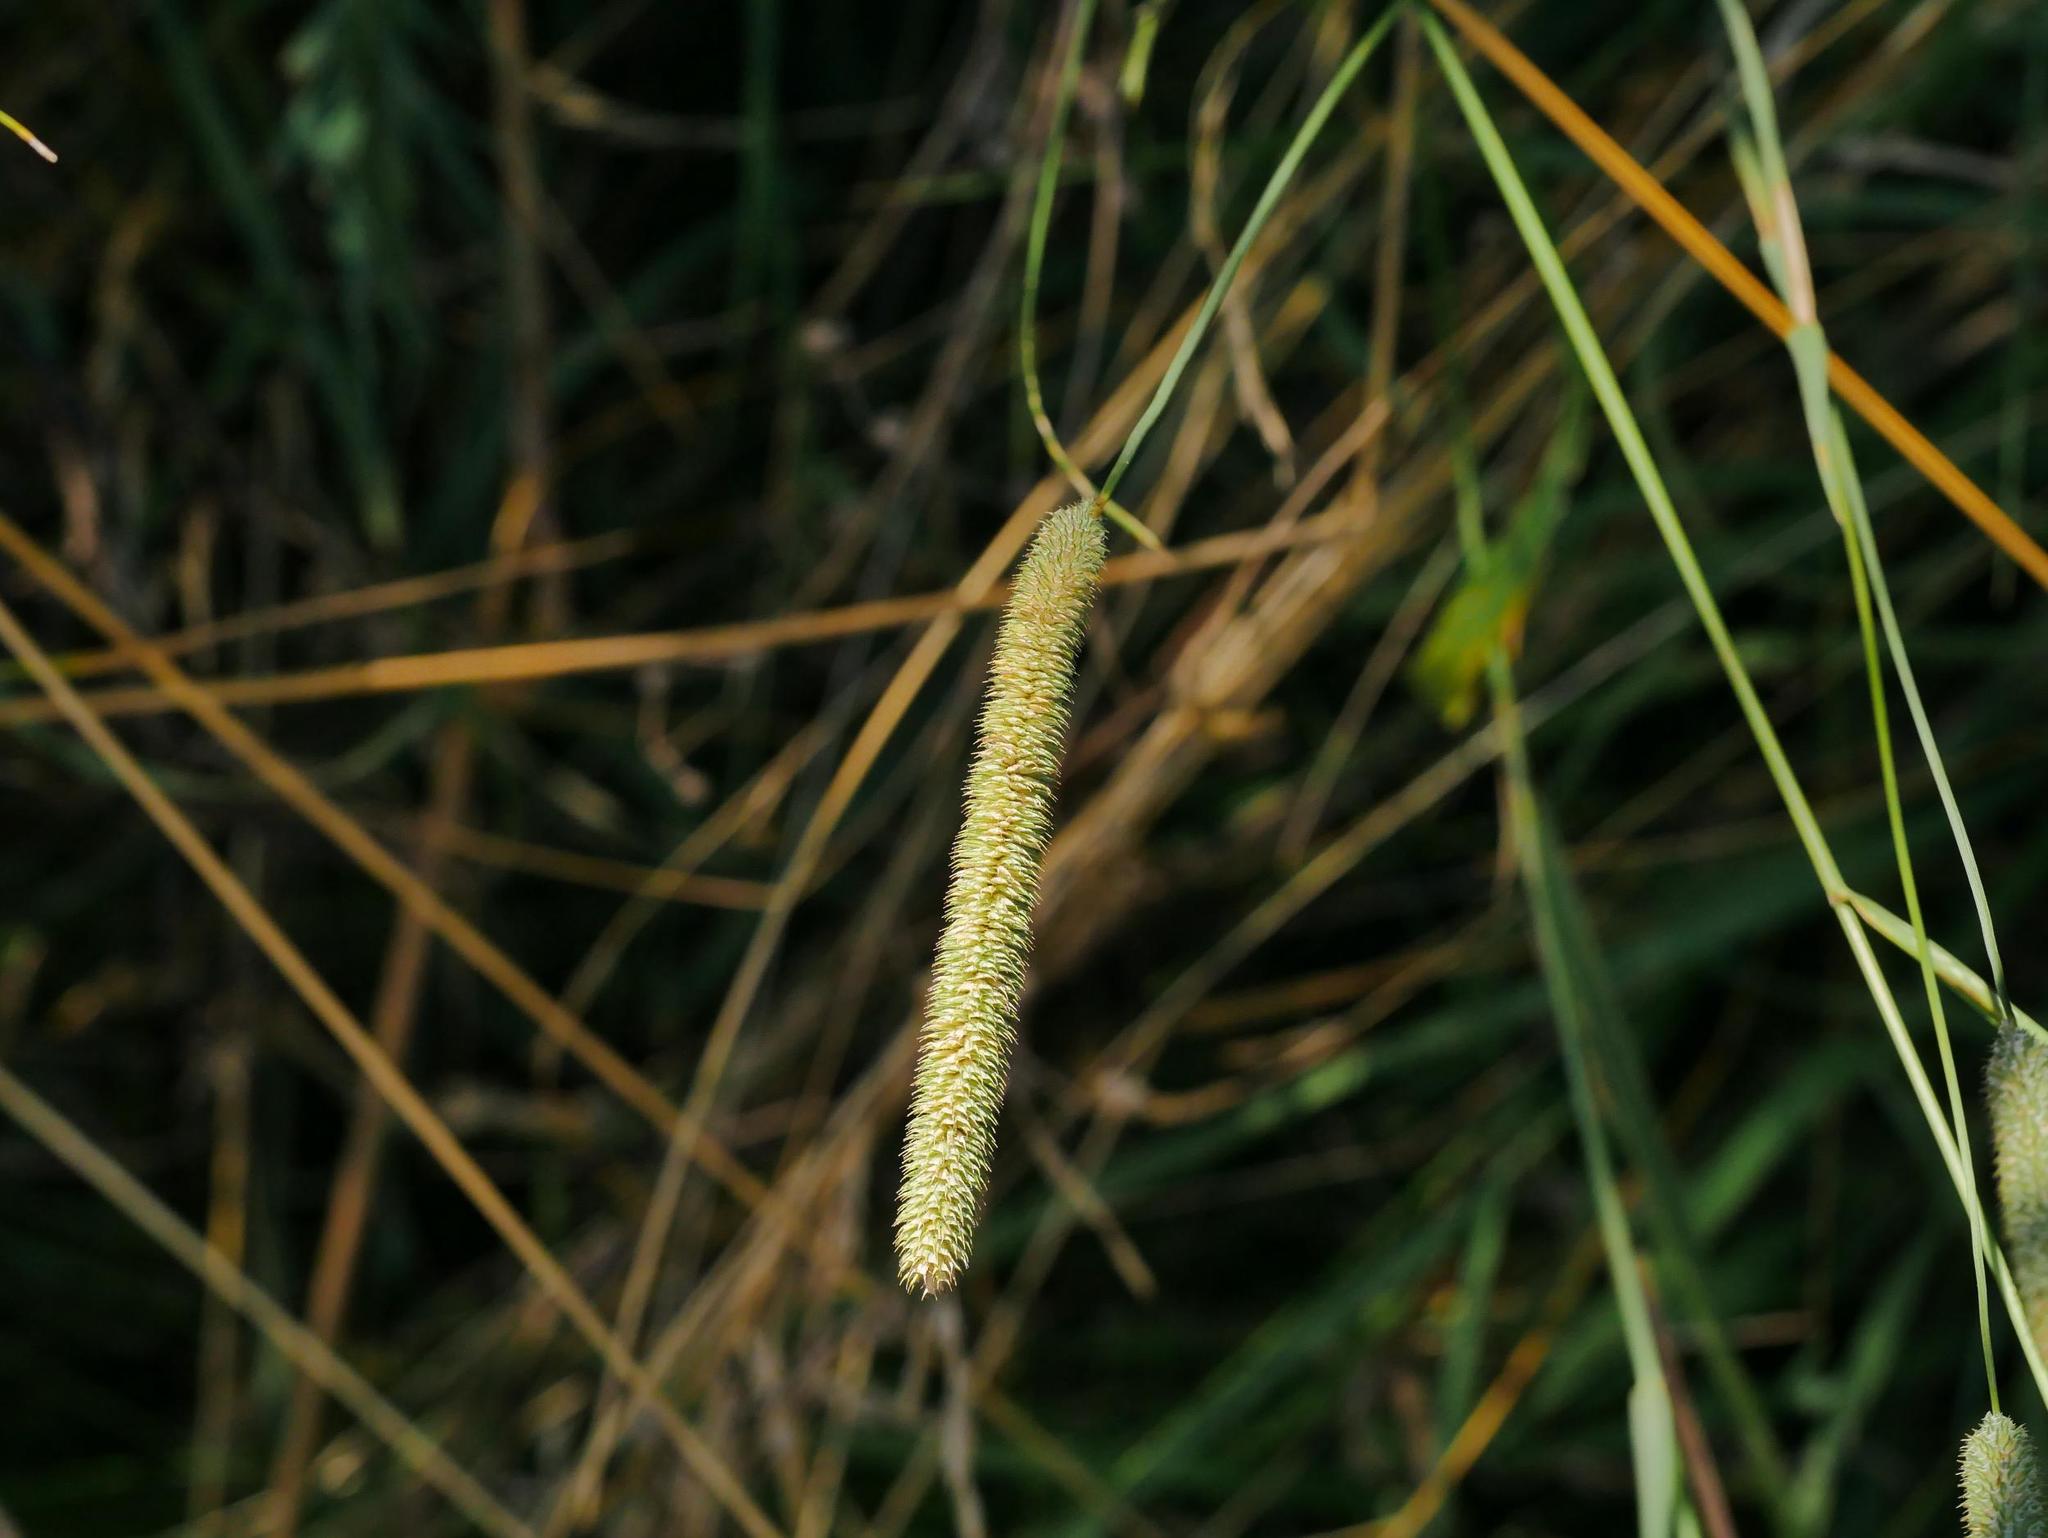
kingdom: Plantae
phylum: Tracheophyta
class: Liliopsida
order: Poales
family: Poaceae
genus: Phleum
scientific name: Phleum pratense
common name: Timothy grass
